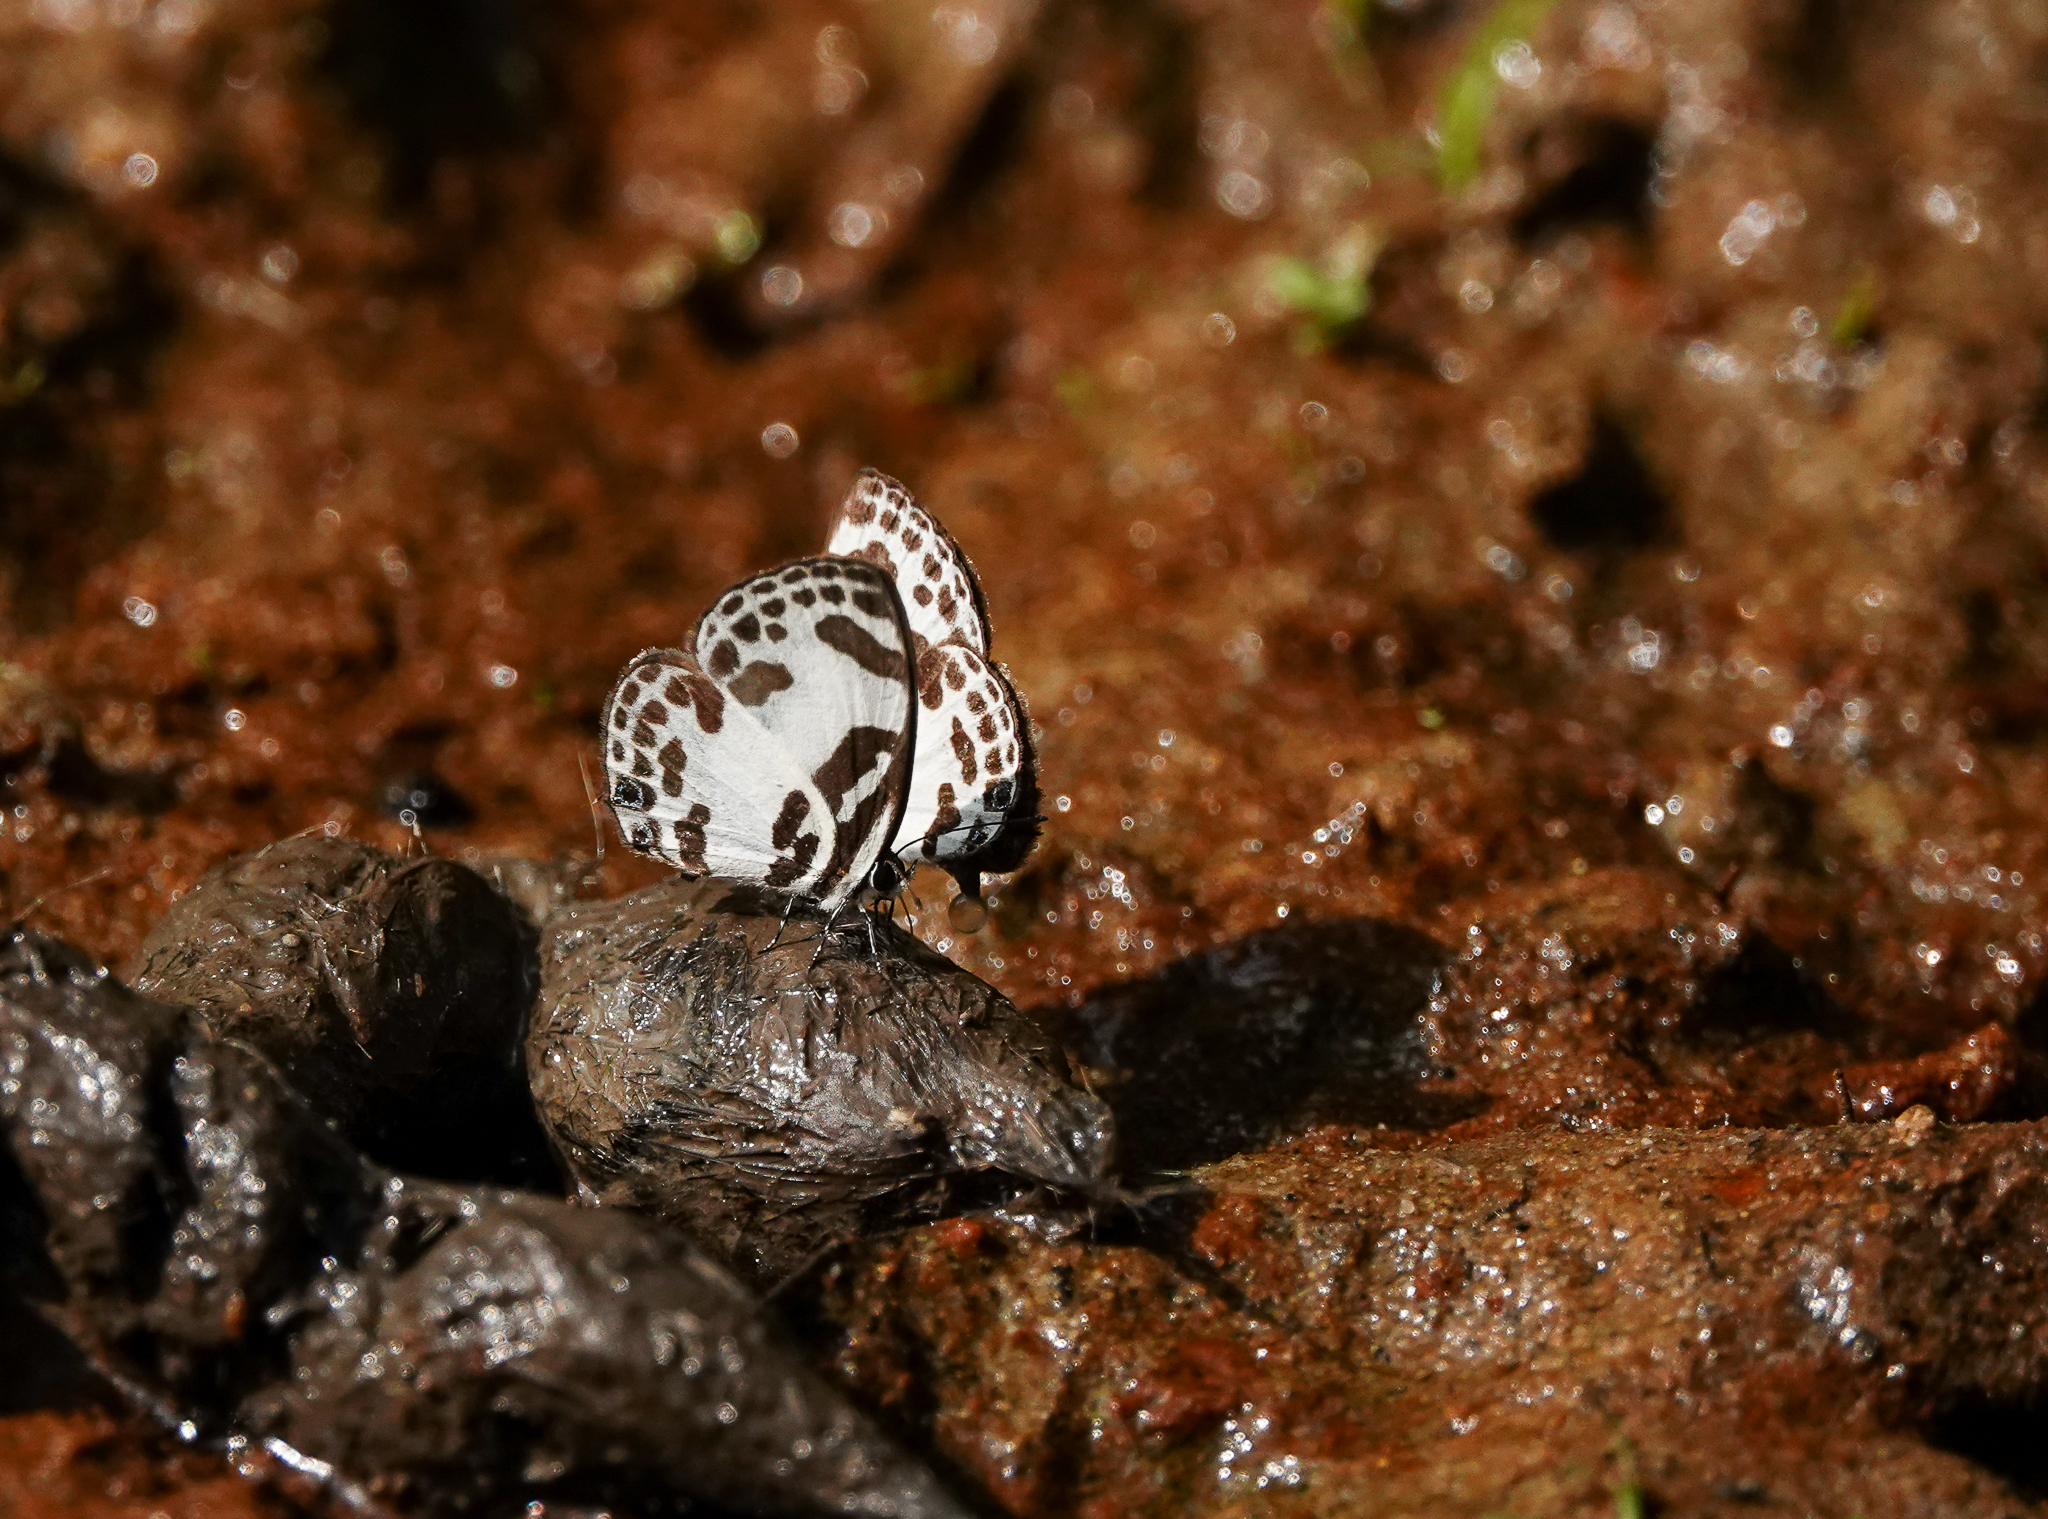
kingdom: Animalia
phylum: Arthropoda
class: Insecta
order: Lepidoptera
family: Lycaenidae
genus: Discolampa
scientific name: Discolampa ethion
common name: Banded blue pierrot
